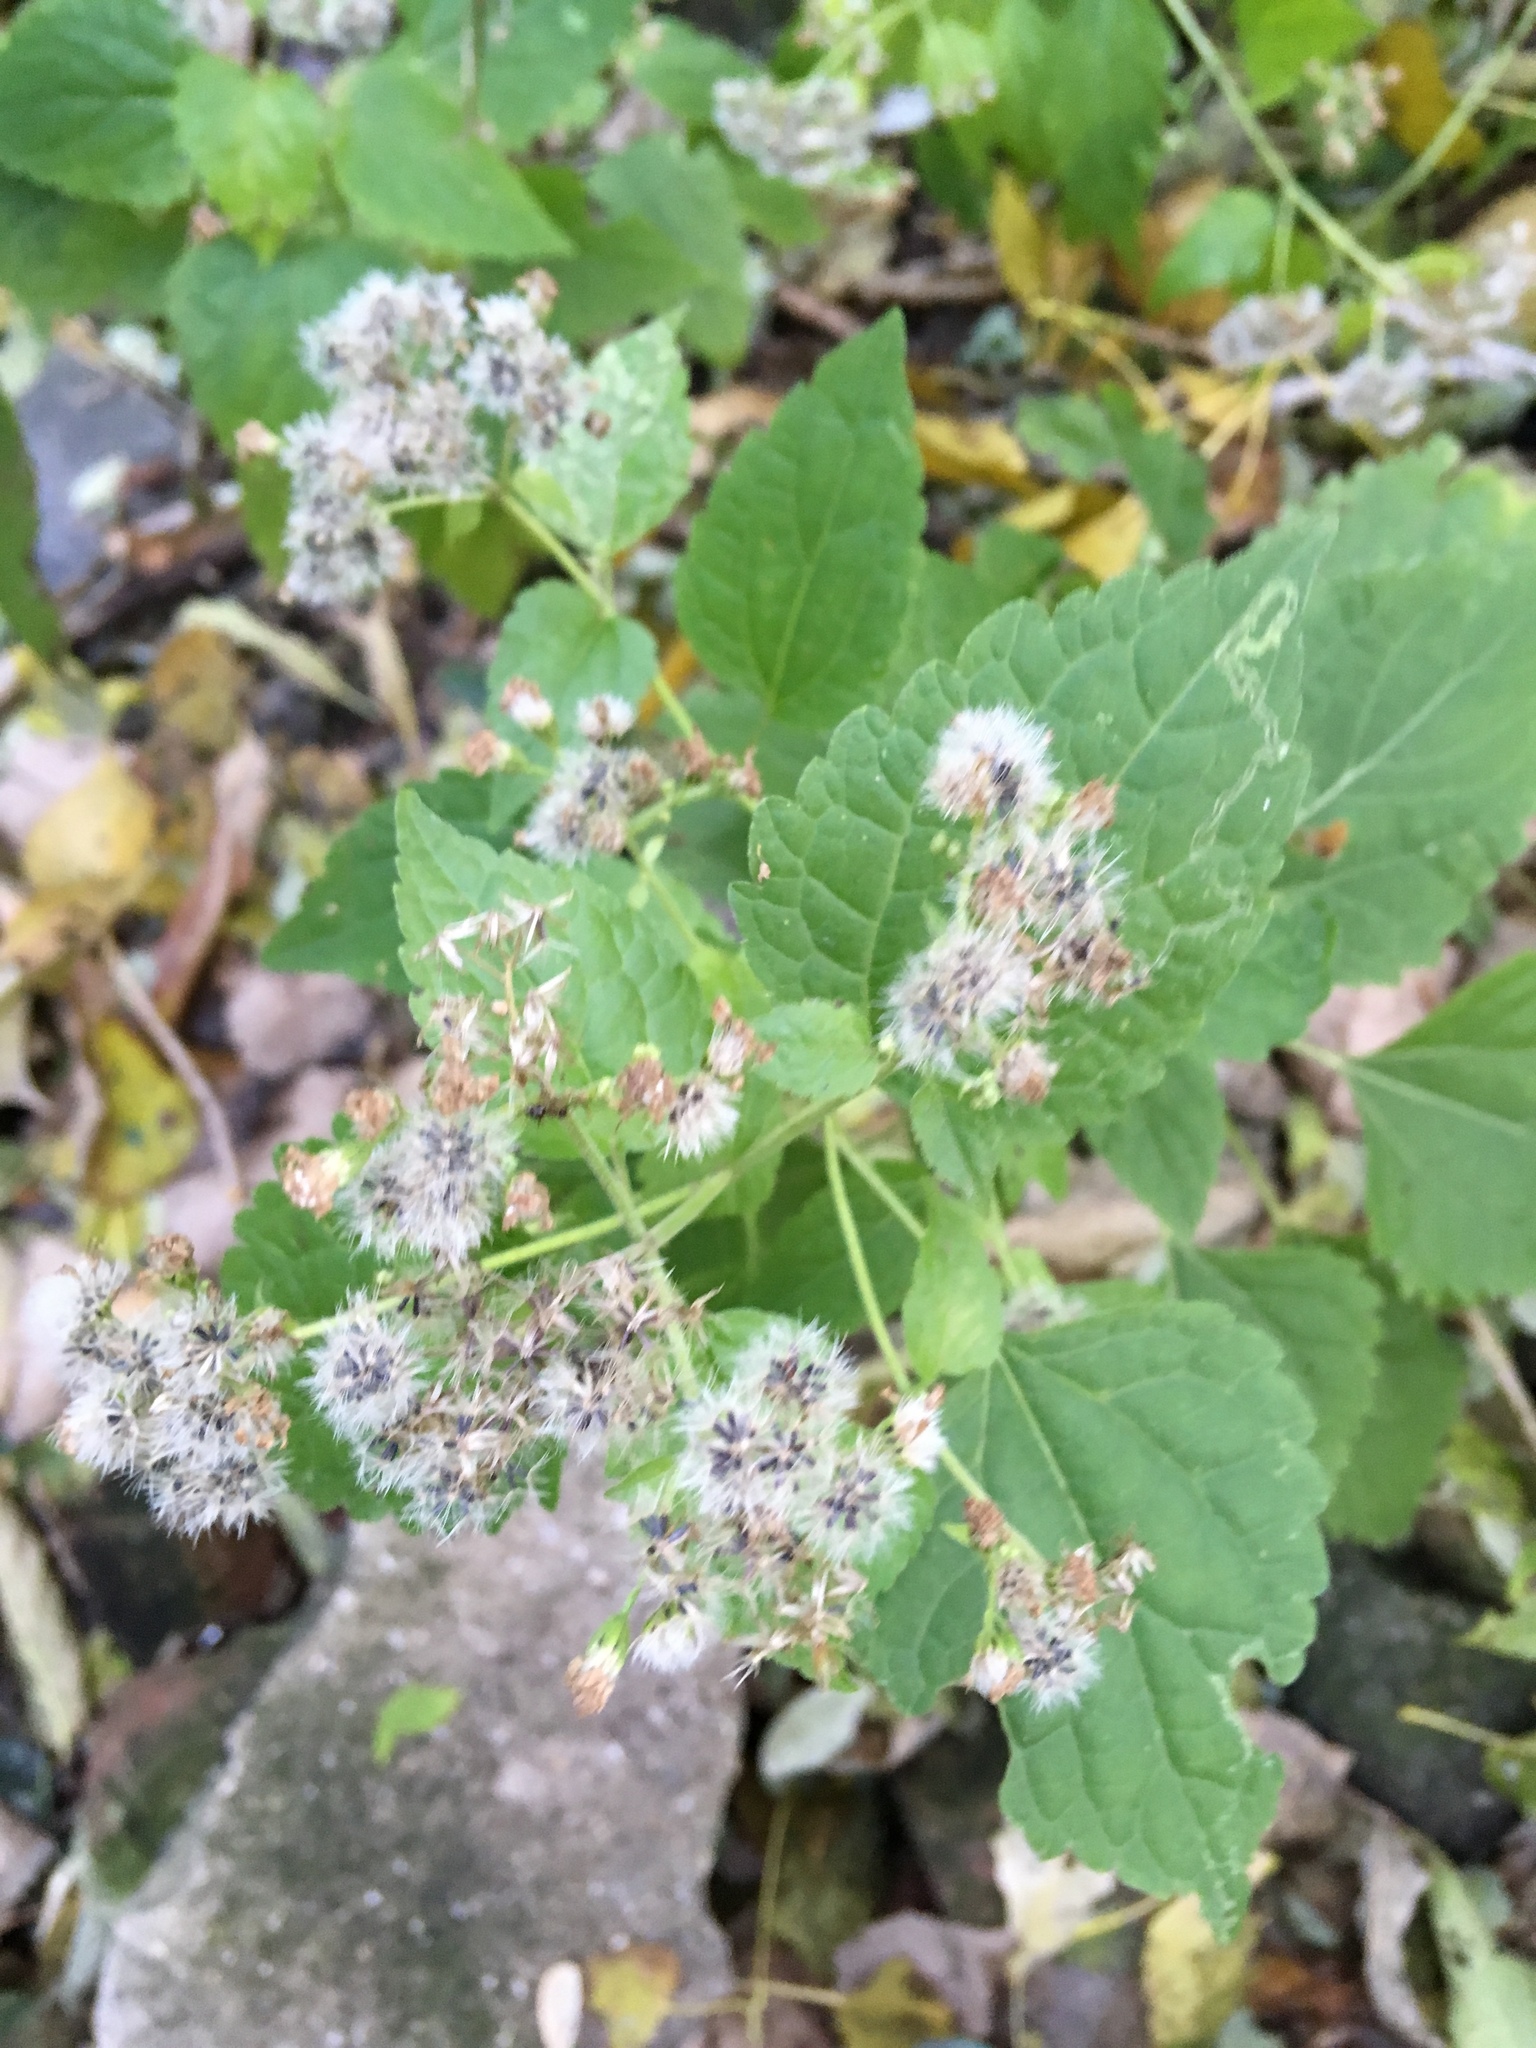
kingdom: Plantae
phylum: Tracheophyta
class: Magnoliopsida
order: Asterales
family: Asteraceae
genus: Ageratina
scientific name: Ageratina altissima
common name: White snakeroot
